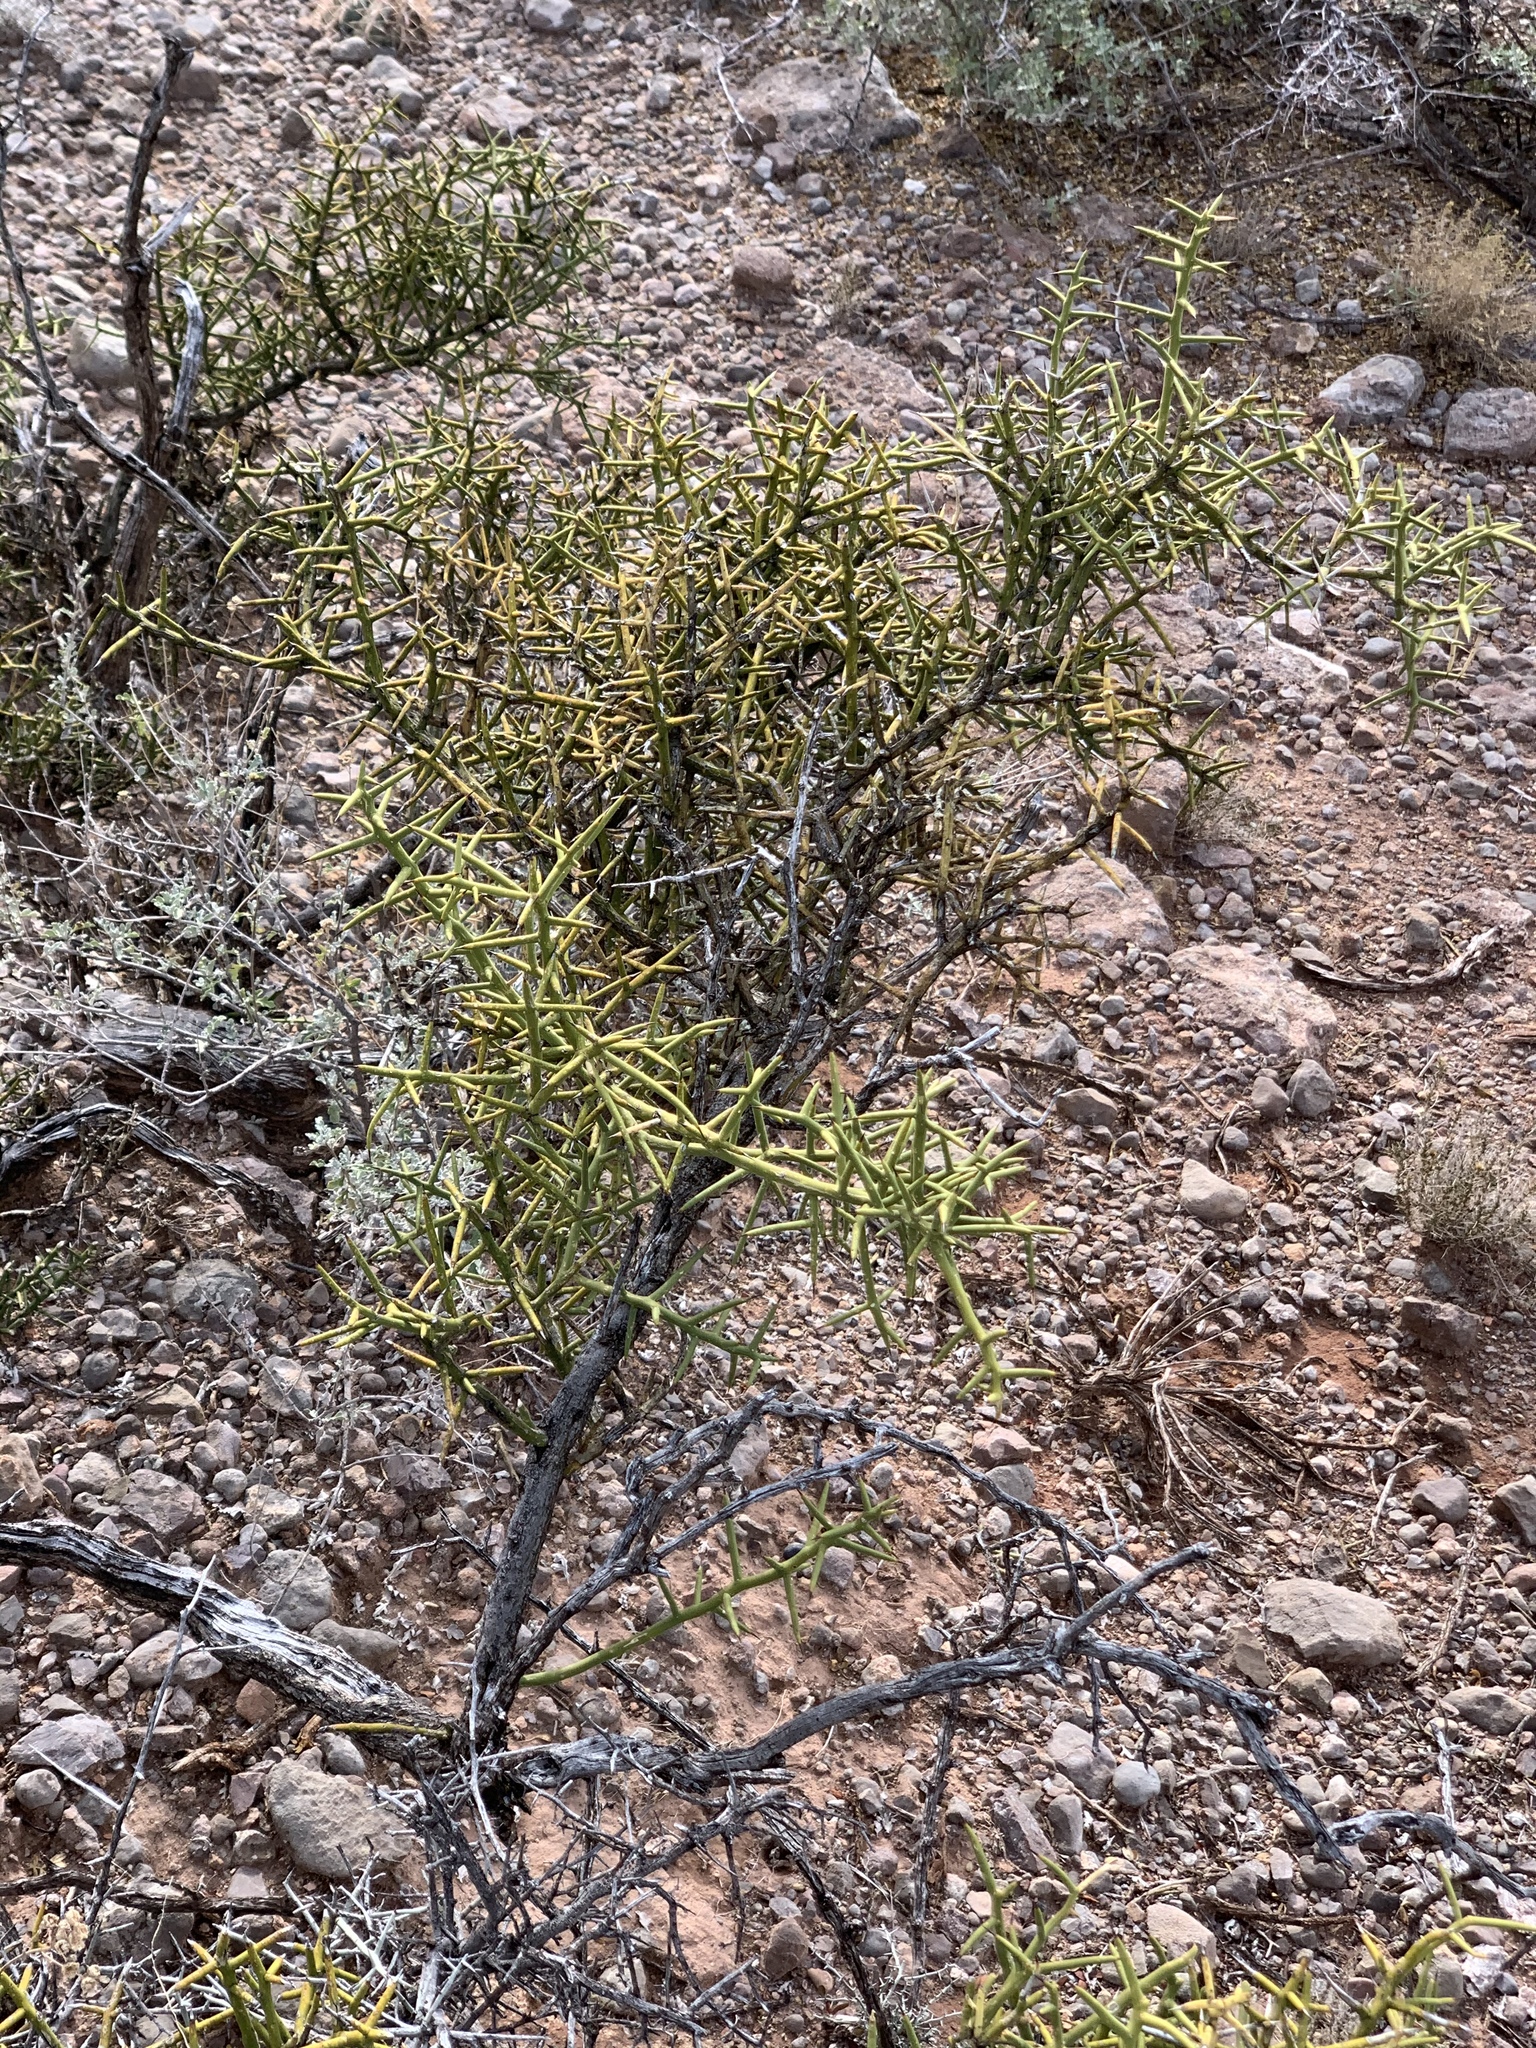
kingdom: Plantae
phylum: Tracheophyta
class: Magnoliopsida
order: Brassicales
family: Koeberliniaceae
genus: Koeberlinia
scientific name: Koeberlinia spinosa
